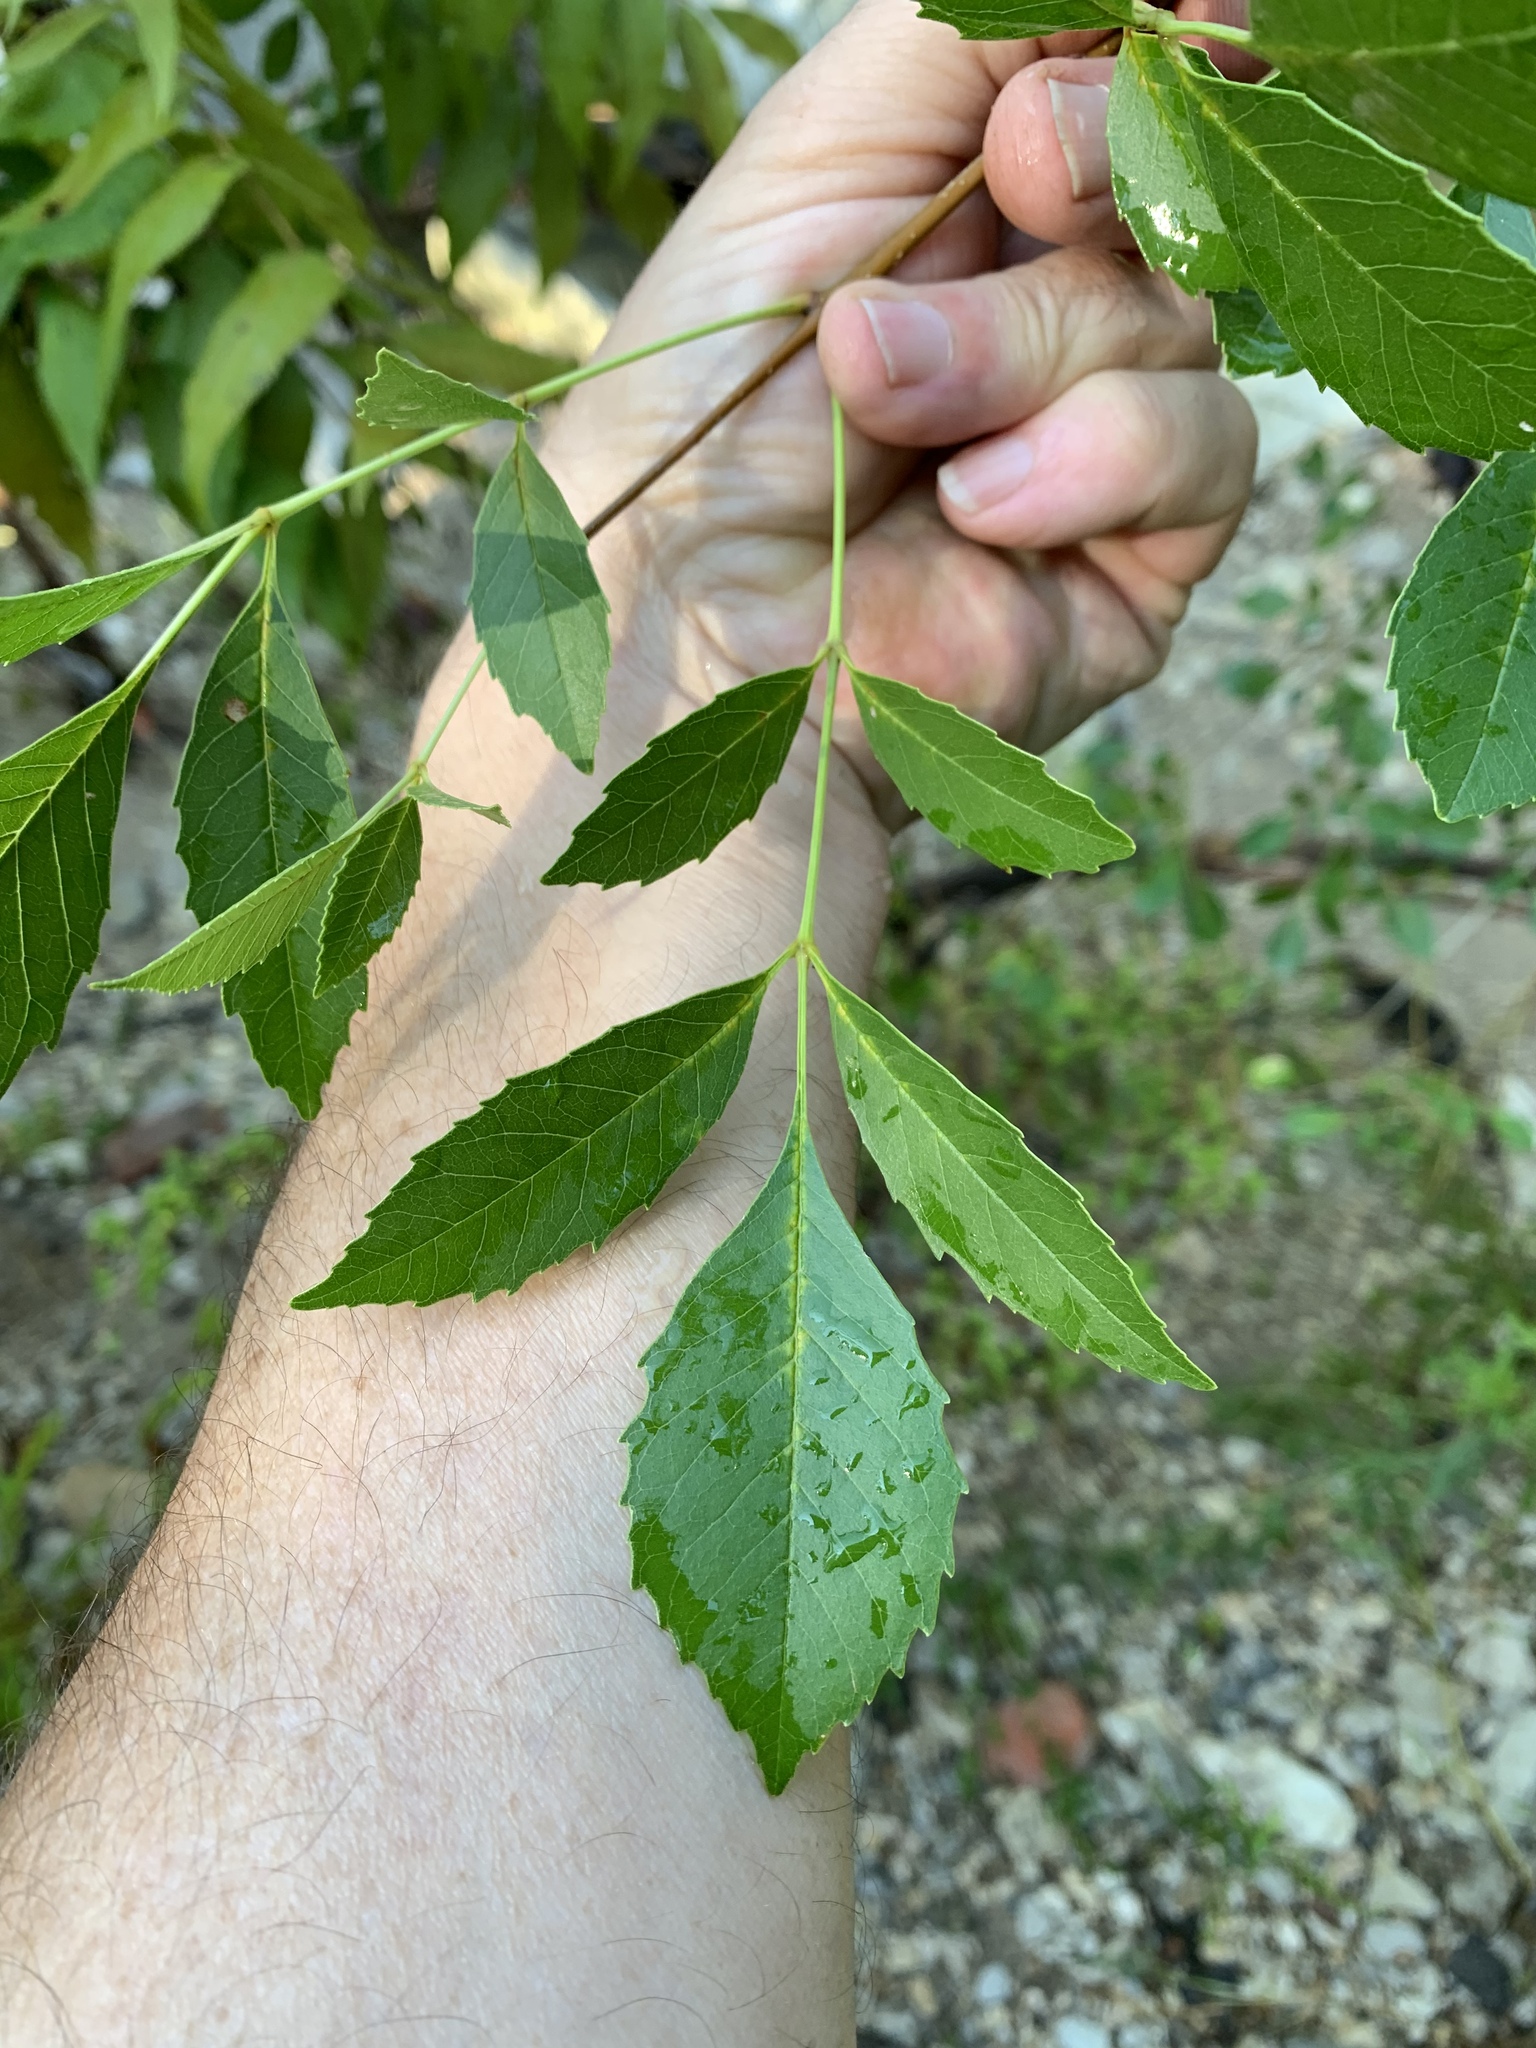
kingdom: Plantae
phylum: Tracheophyta
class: Magnoliopsida
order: Lamiales
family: Oleaceae
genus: Fraxinus
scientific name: Fraxinus pennsylvanica
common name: Green ash
